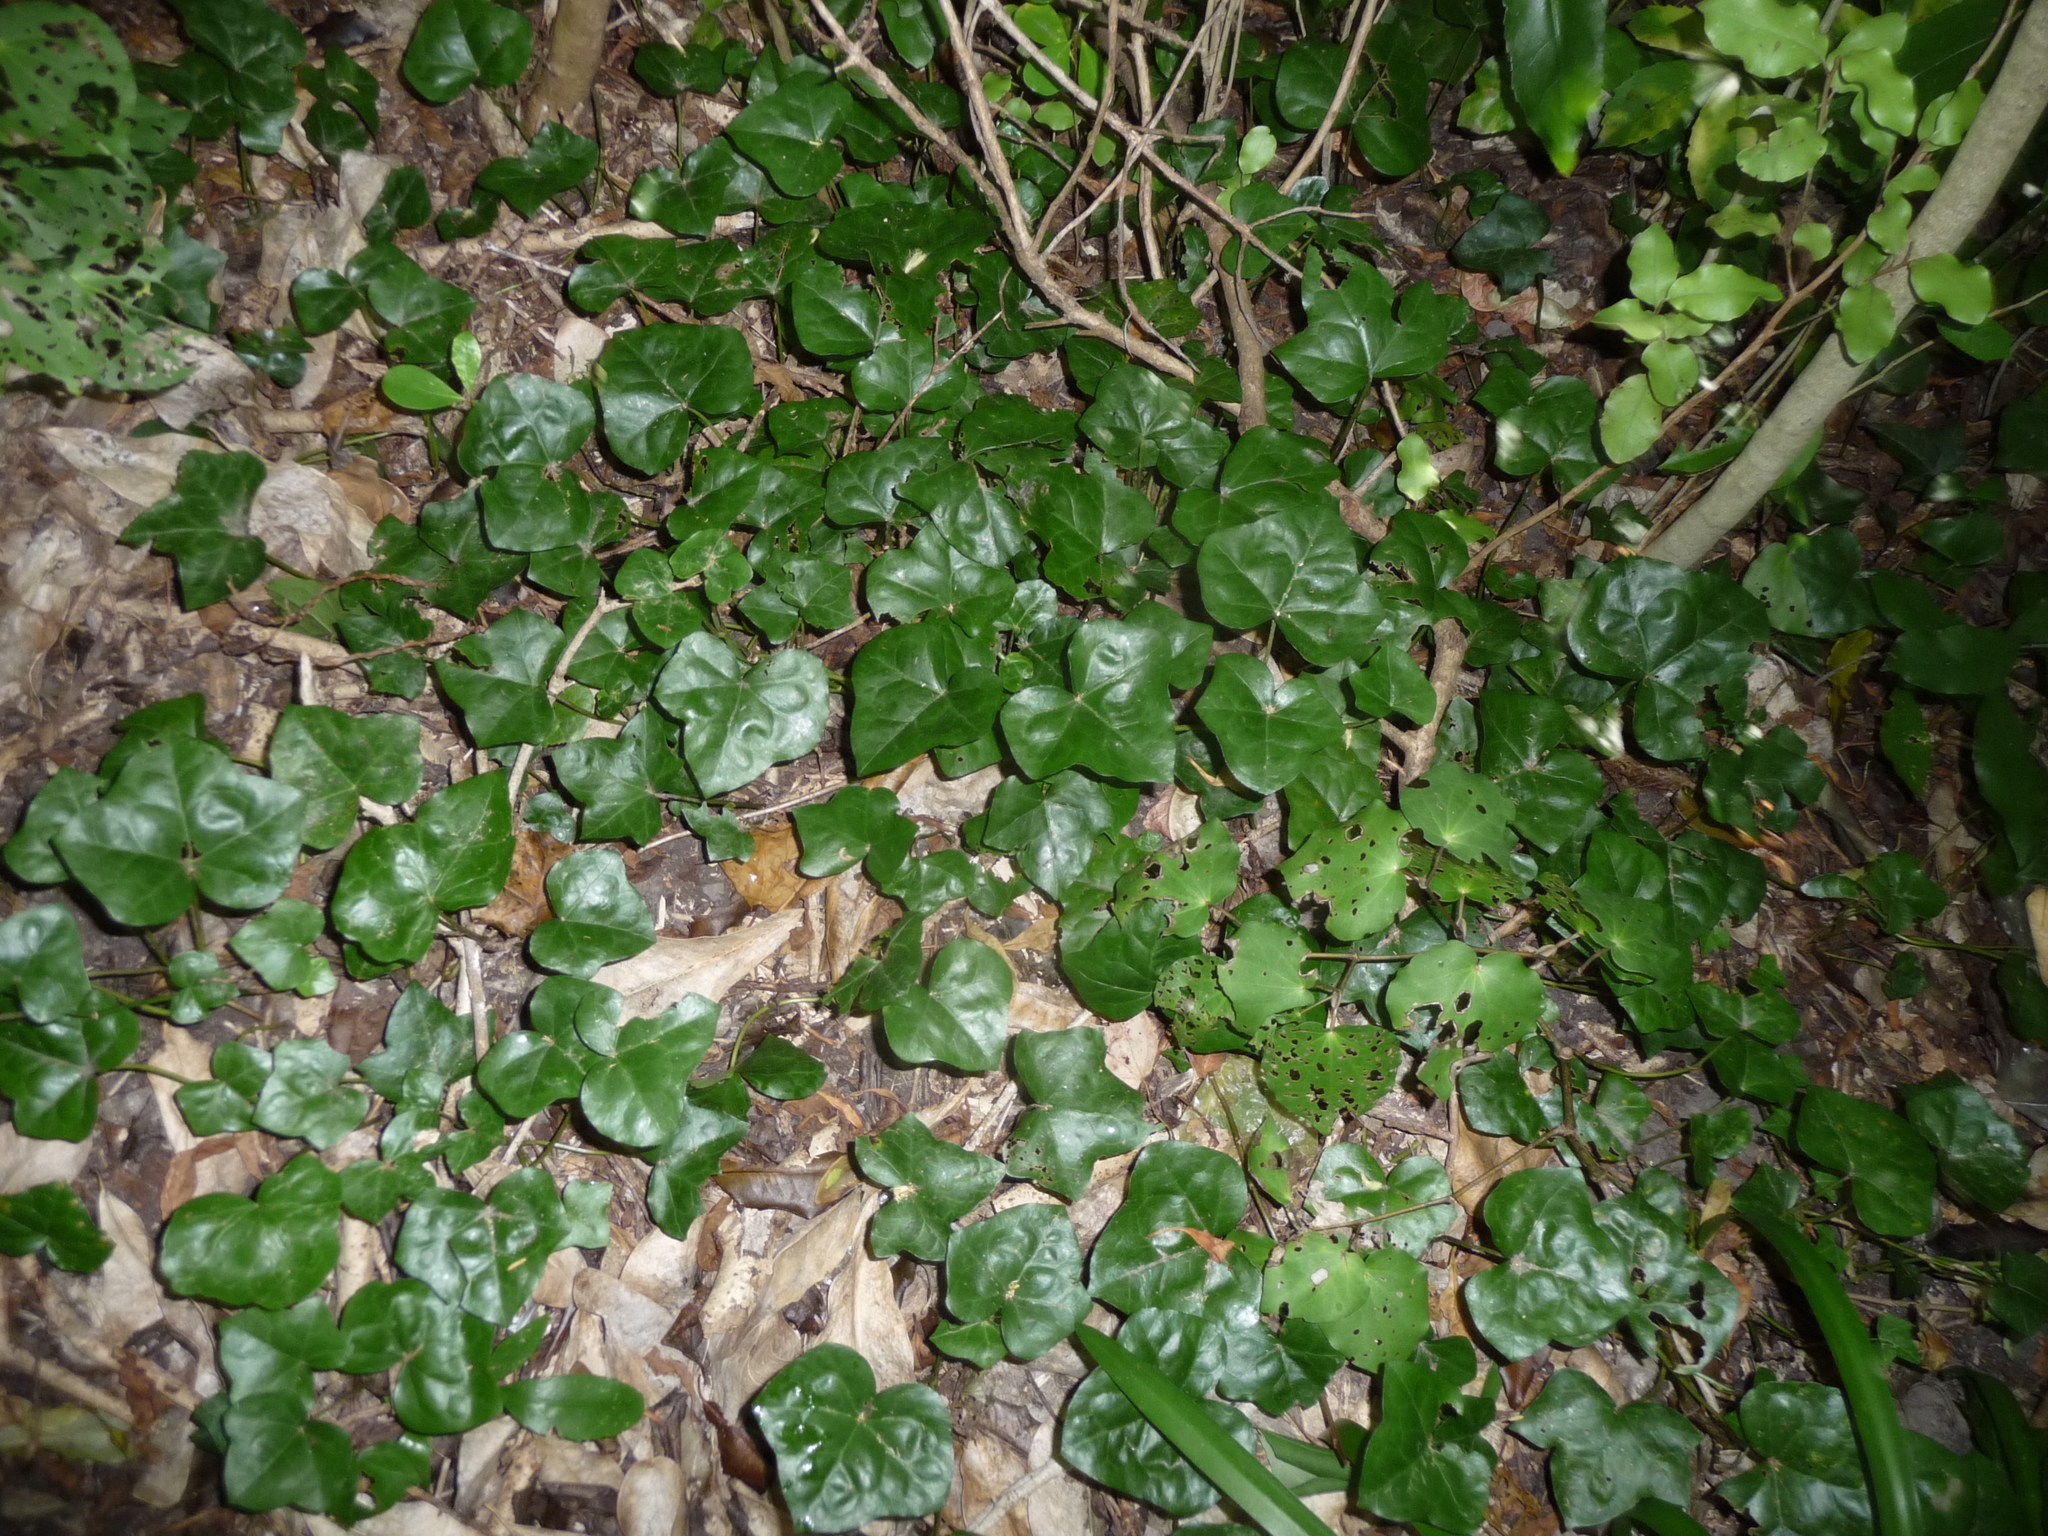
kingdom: Plantae
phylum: Tracheophyta
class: Magnoliopsida
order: Apiales
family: Araliaceae
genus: Hedera
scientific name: Hedera helix
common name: Ivy
